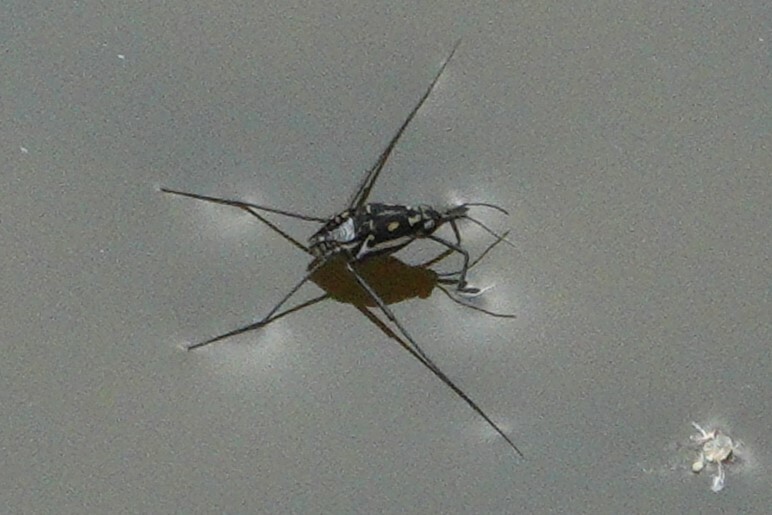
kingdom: Animalia
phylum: Arthropoda
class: Insecta
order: Hemiptera
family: Gerridae
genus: Trepobates
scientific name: Trepobates subnitidus
